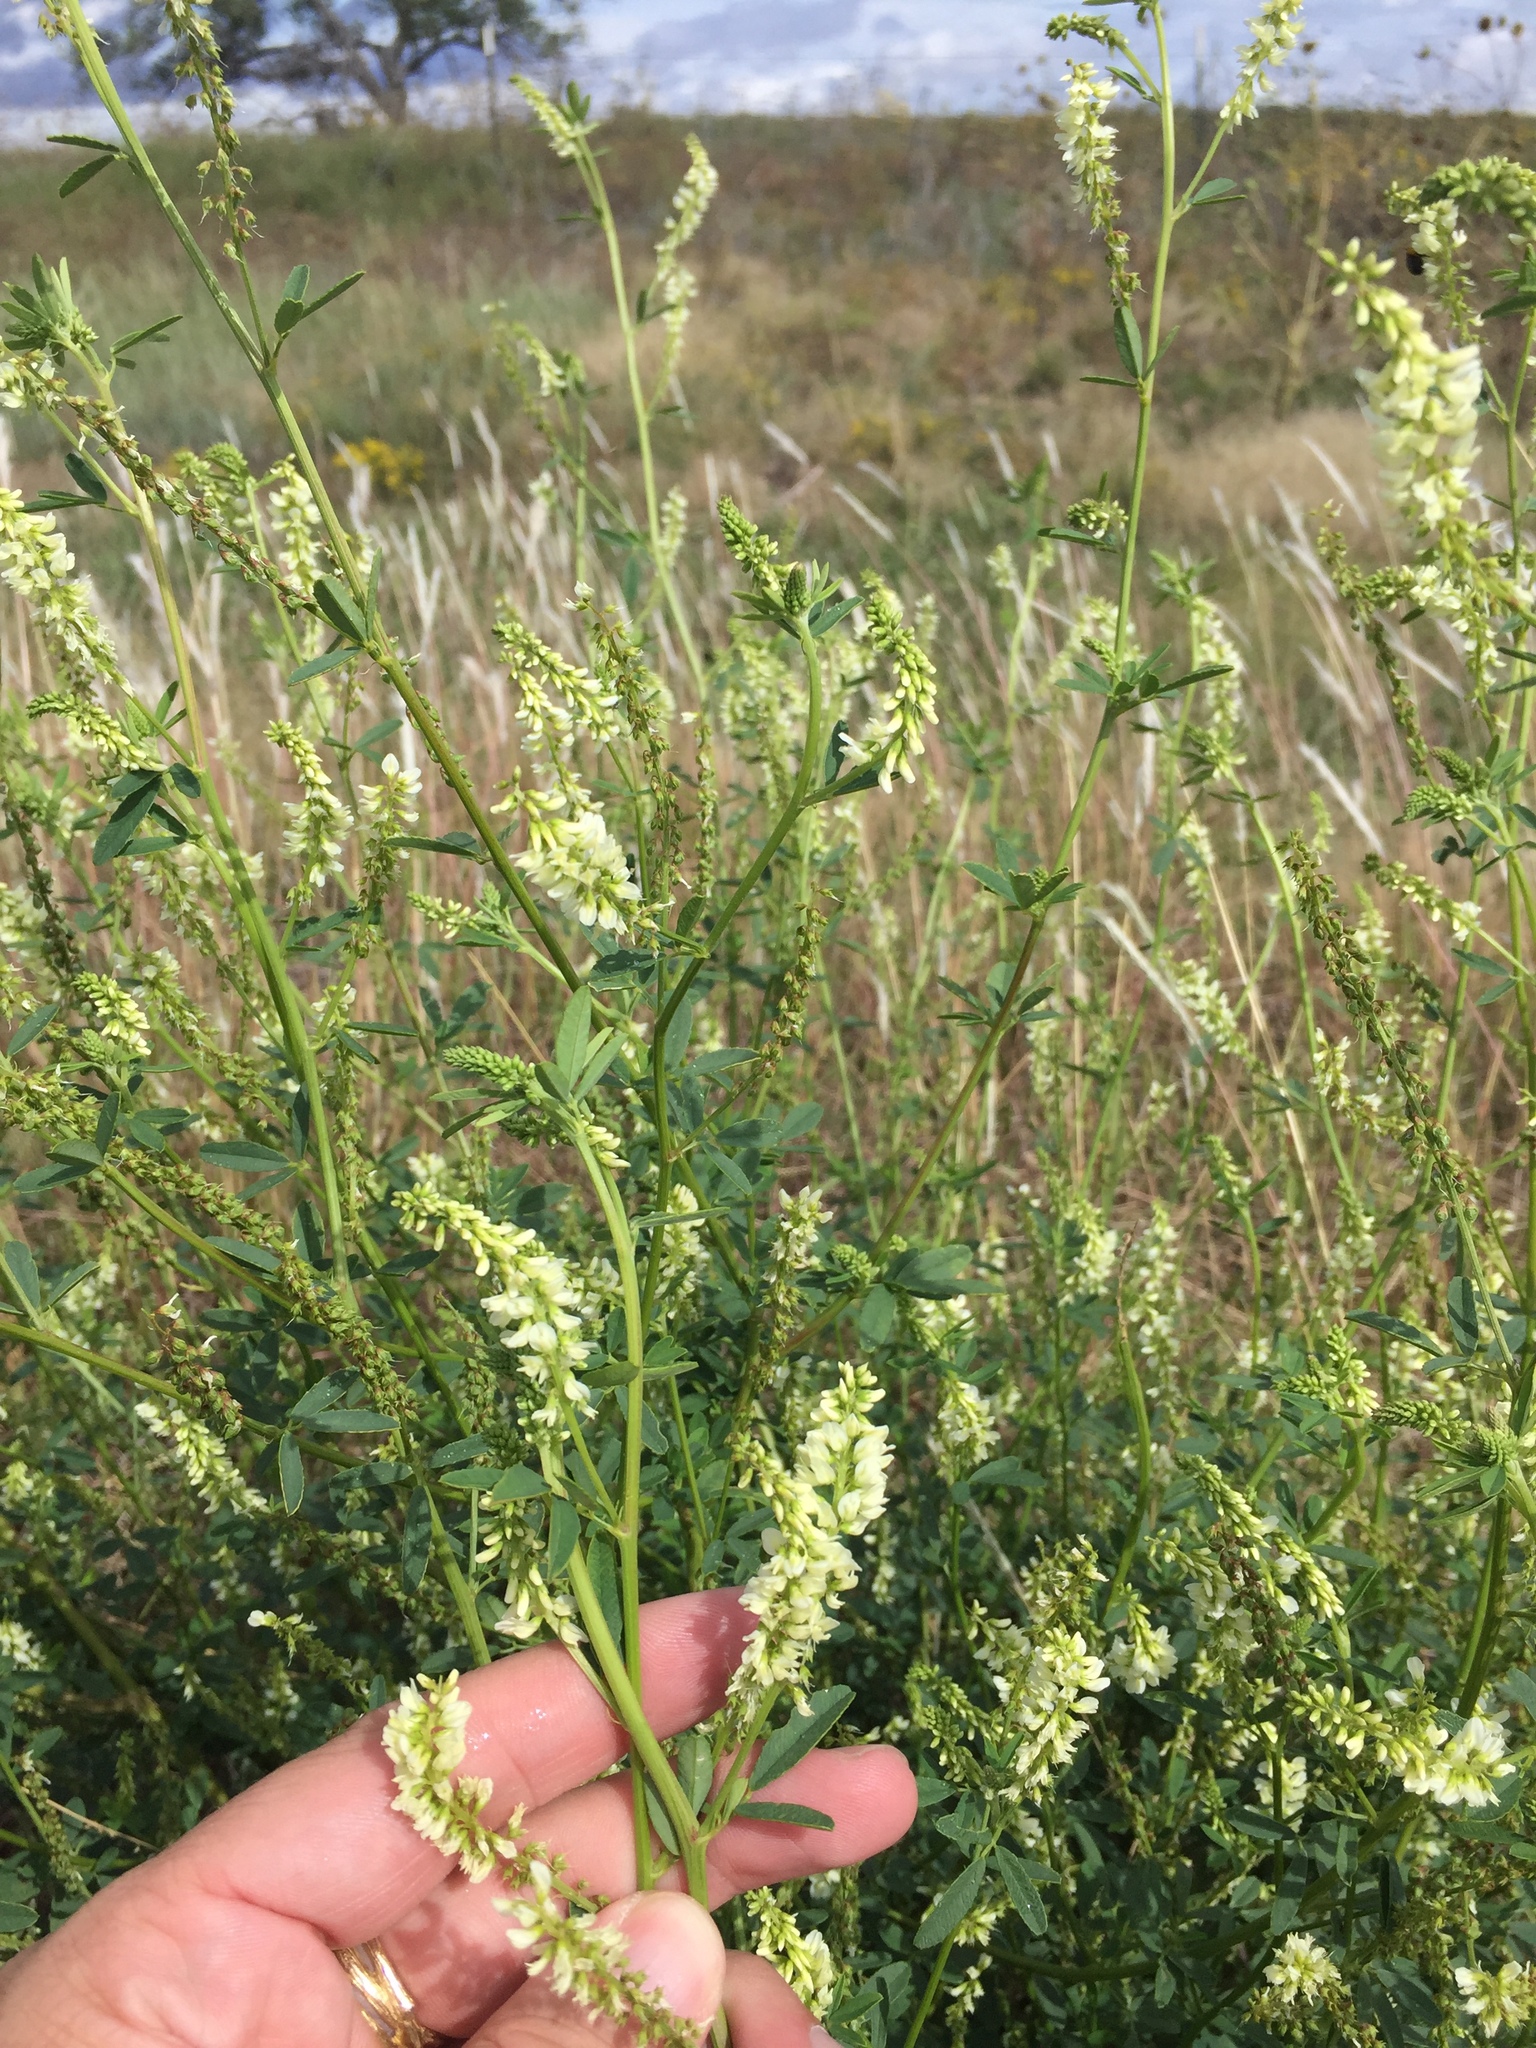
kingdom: Plantae
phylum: Tracheophyta
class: Magnoliopsida
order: Fabales
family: Fabaceae
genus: Melilotus
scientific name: Melilotus albus
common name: White melilot
